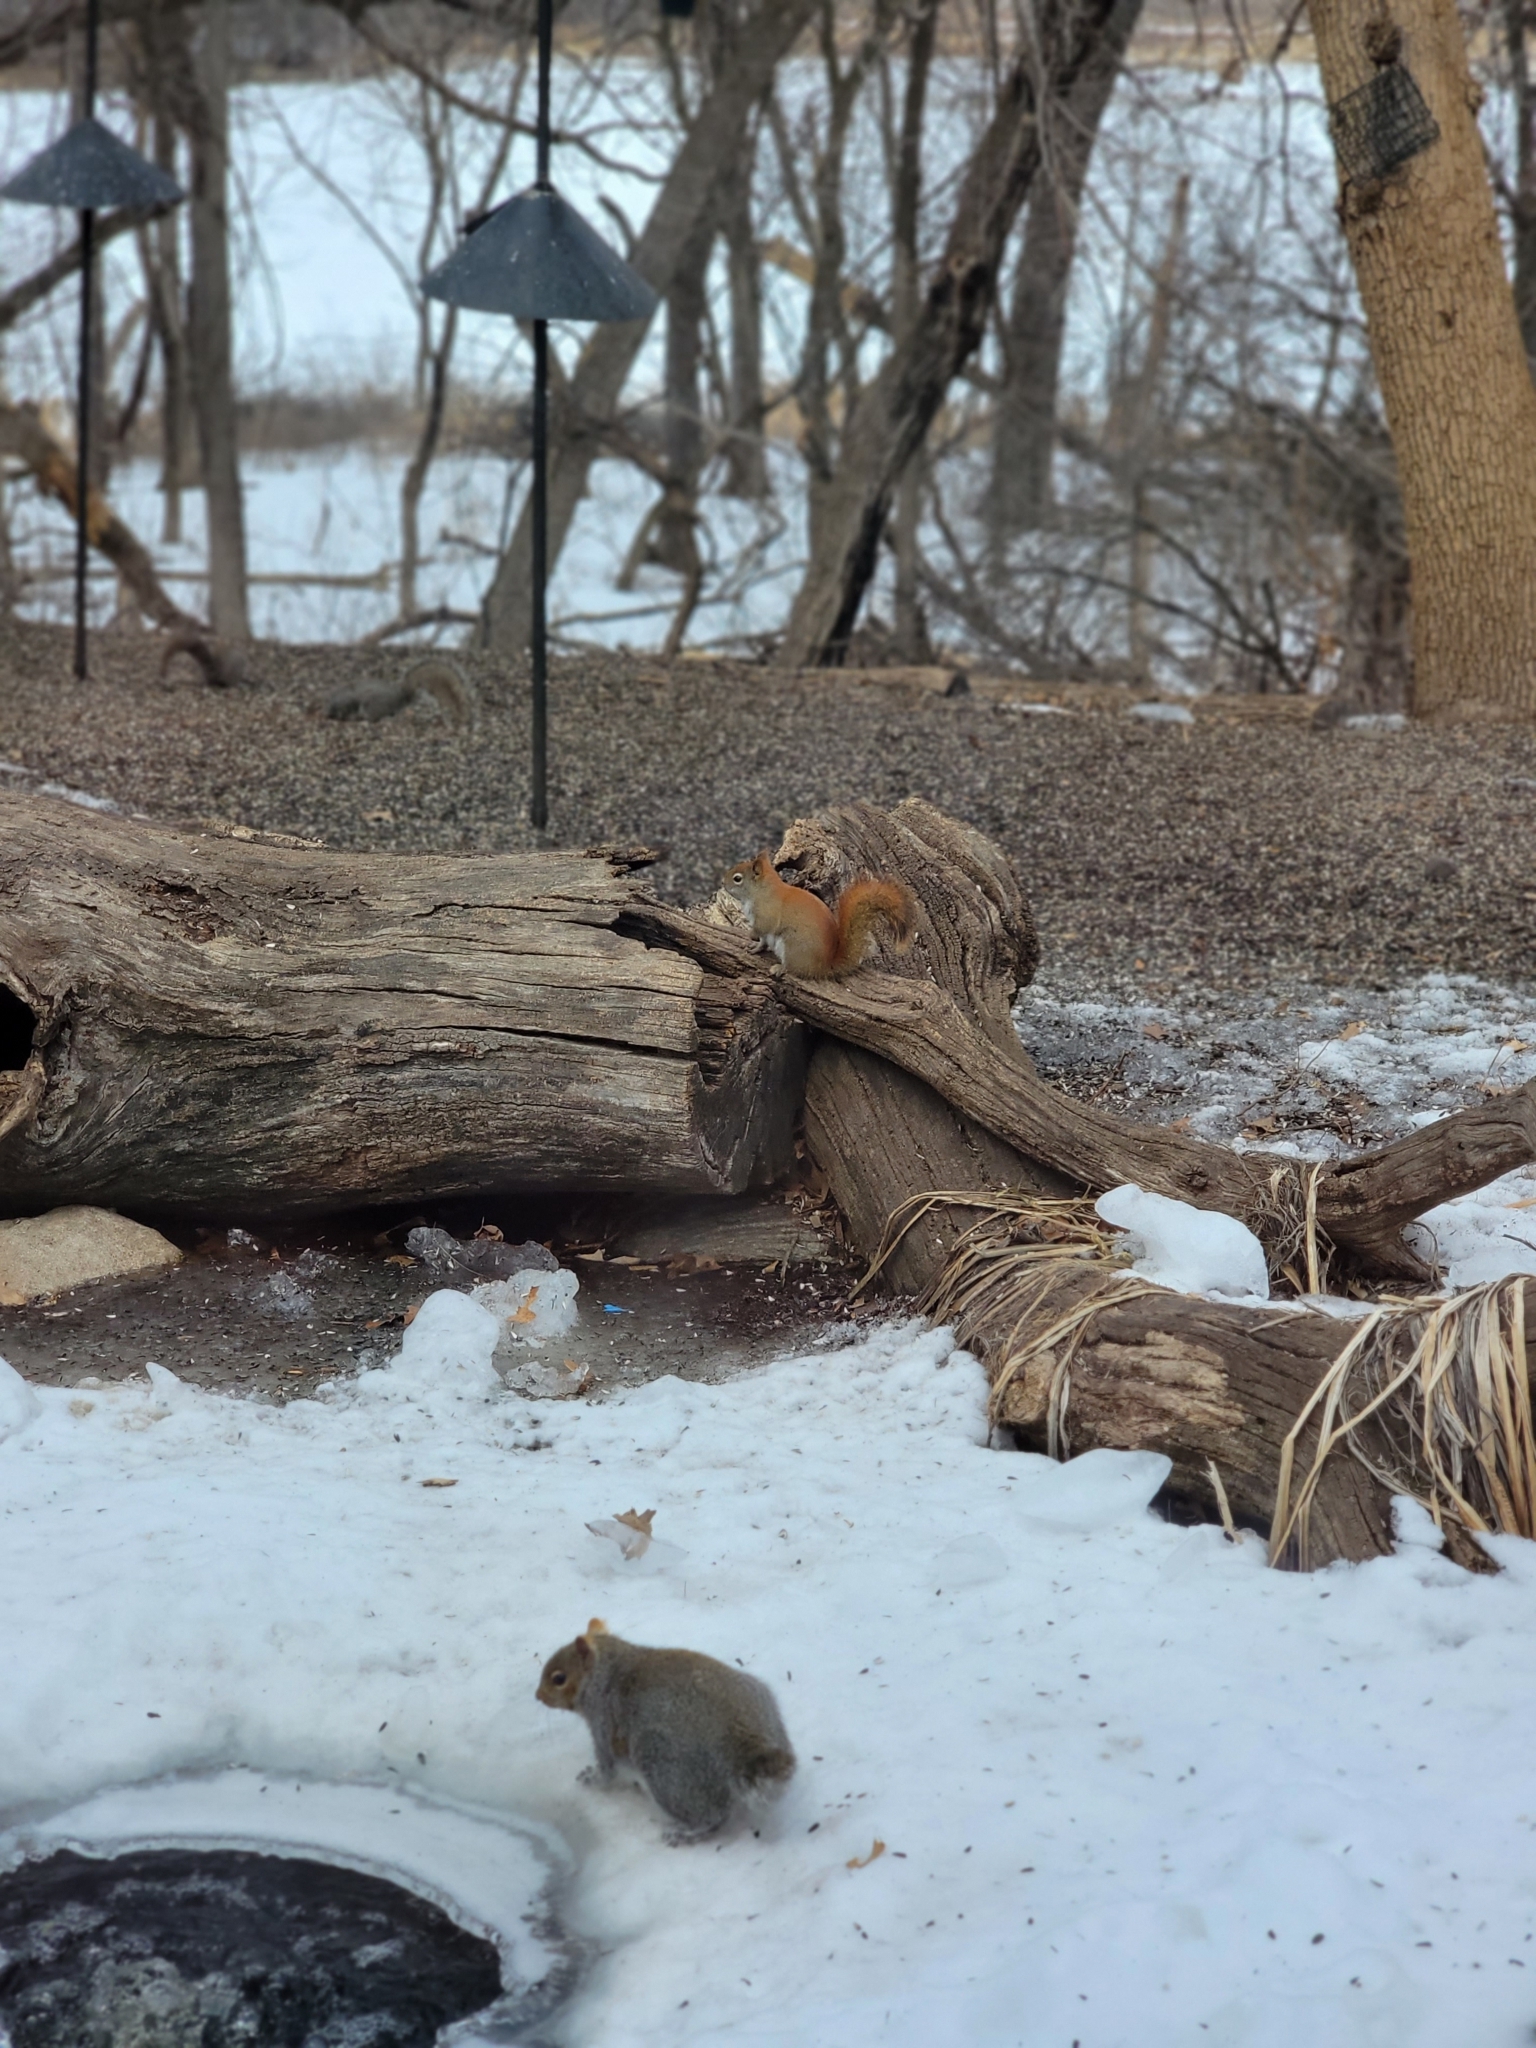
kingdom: Animalia
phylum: Chordata
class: Mammalia
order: Rodentia
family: Sciuridae
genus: Tamiasciurus
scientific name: Tamiasciurus hudsonicus
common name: Red squirrel
